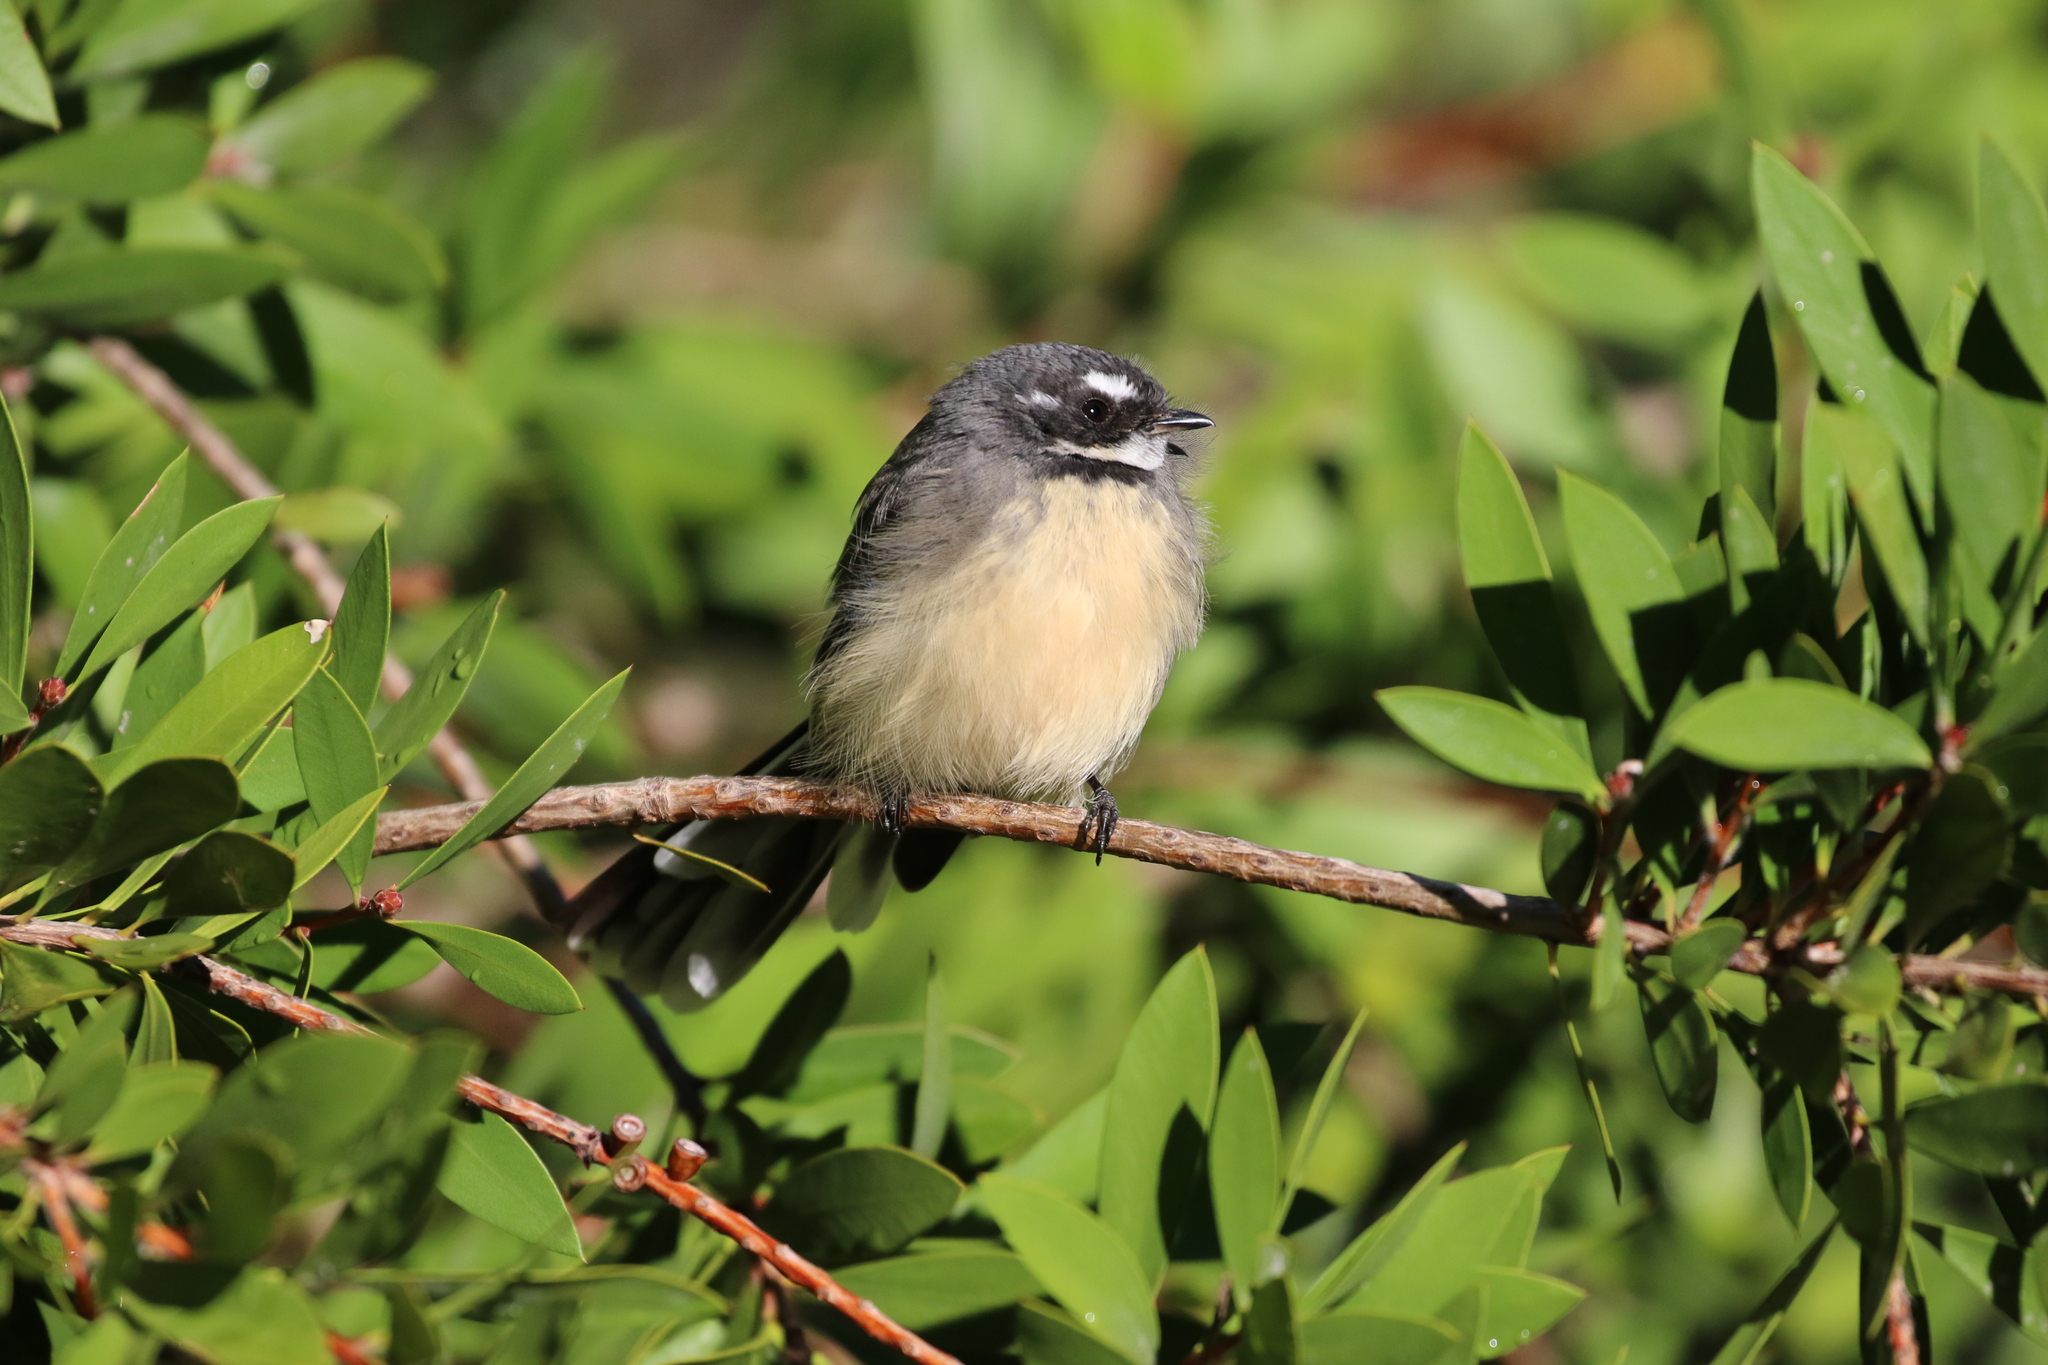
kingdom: Animalia
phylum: Chordata
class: Aves
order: Passeriformes
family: Rhipiduridae
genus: Rhipidura
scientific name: Rhipidura albiscapa
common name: Grey fantail
